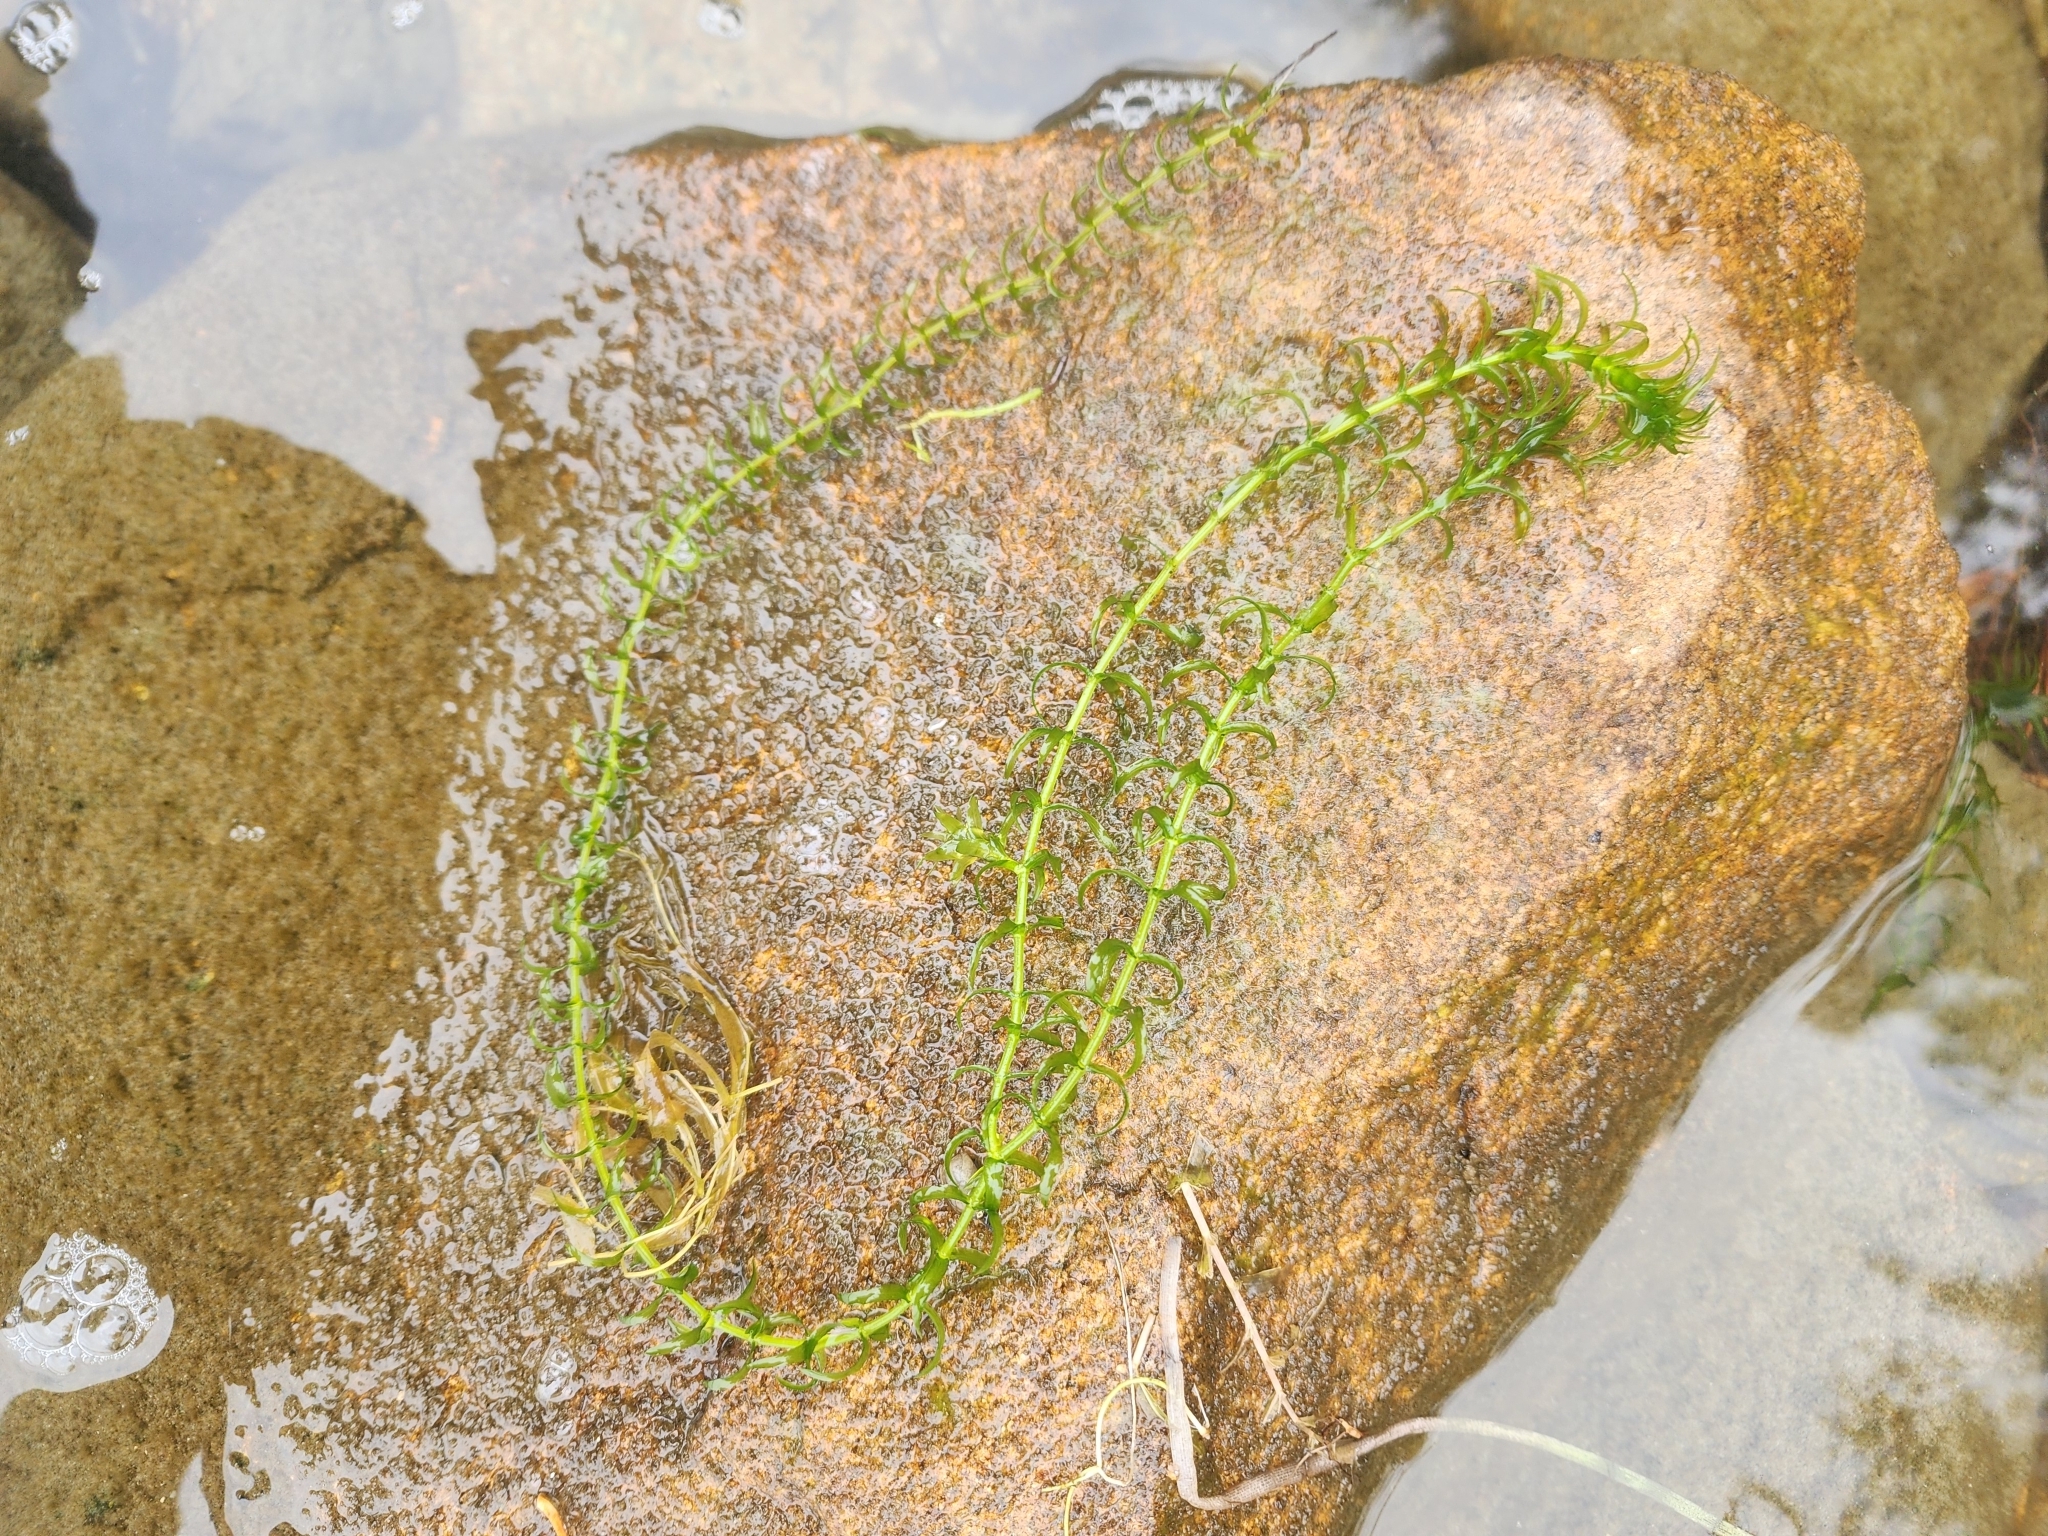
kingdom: Plantae
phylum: Tracheophyta
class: Liliopsida
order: Alismatales
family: Hydrocharitaceae
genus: Elodea
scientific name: Elodea canadensis
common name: Canadian waterweed
